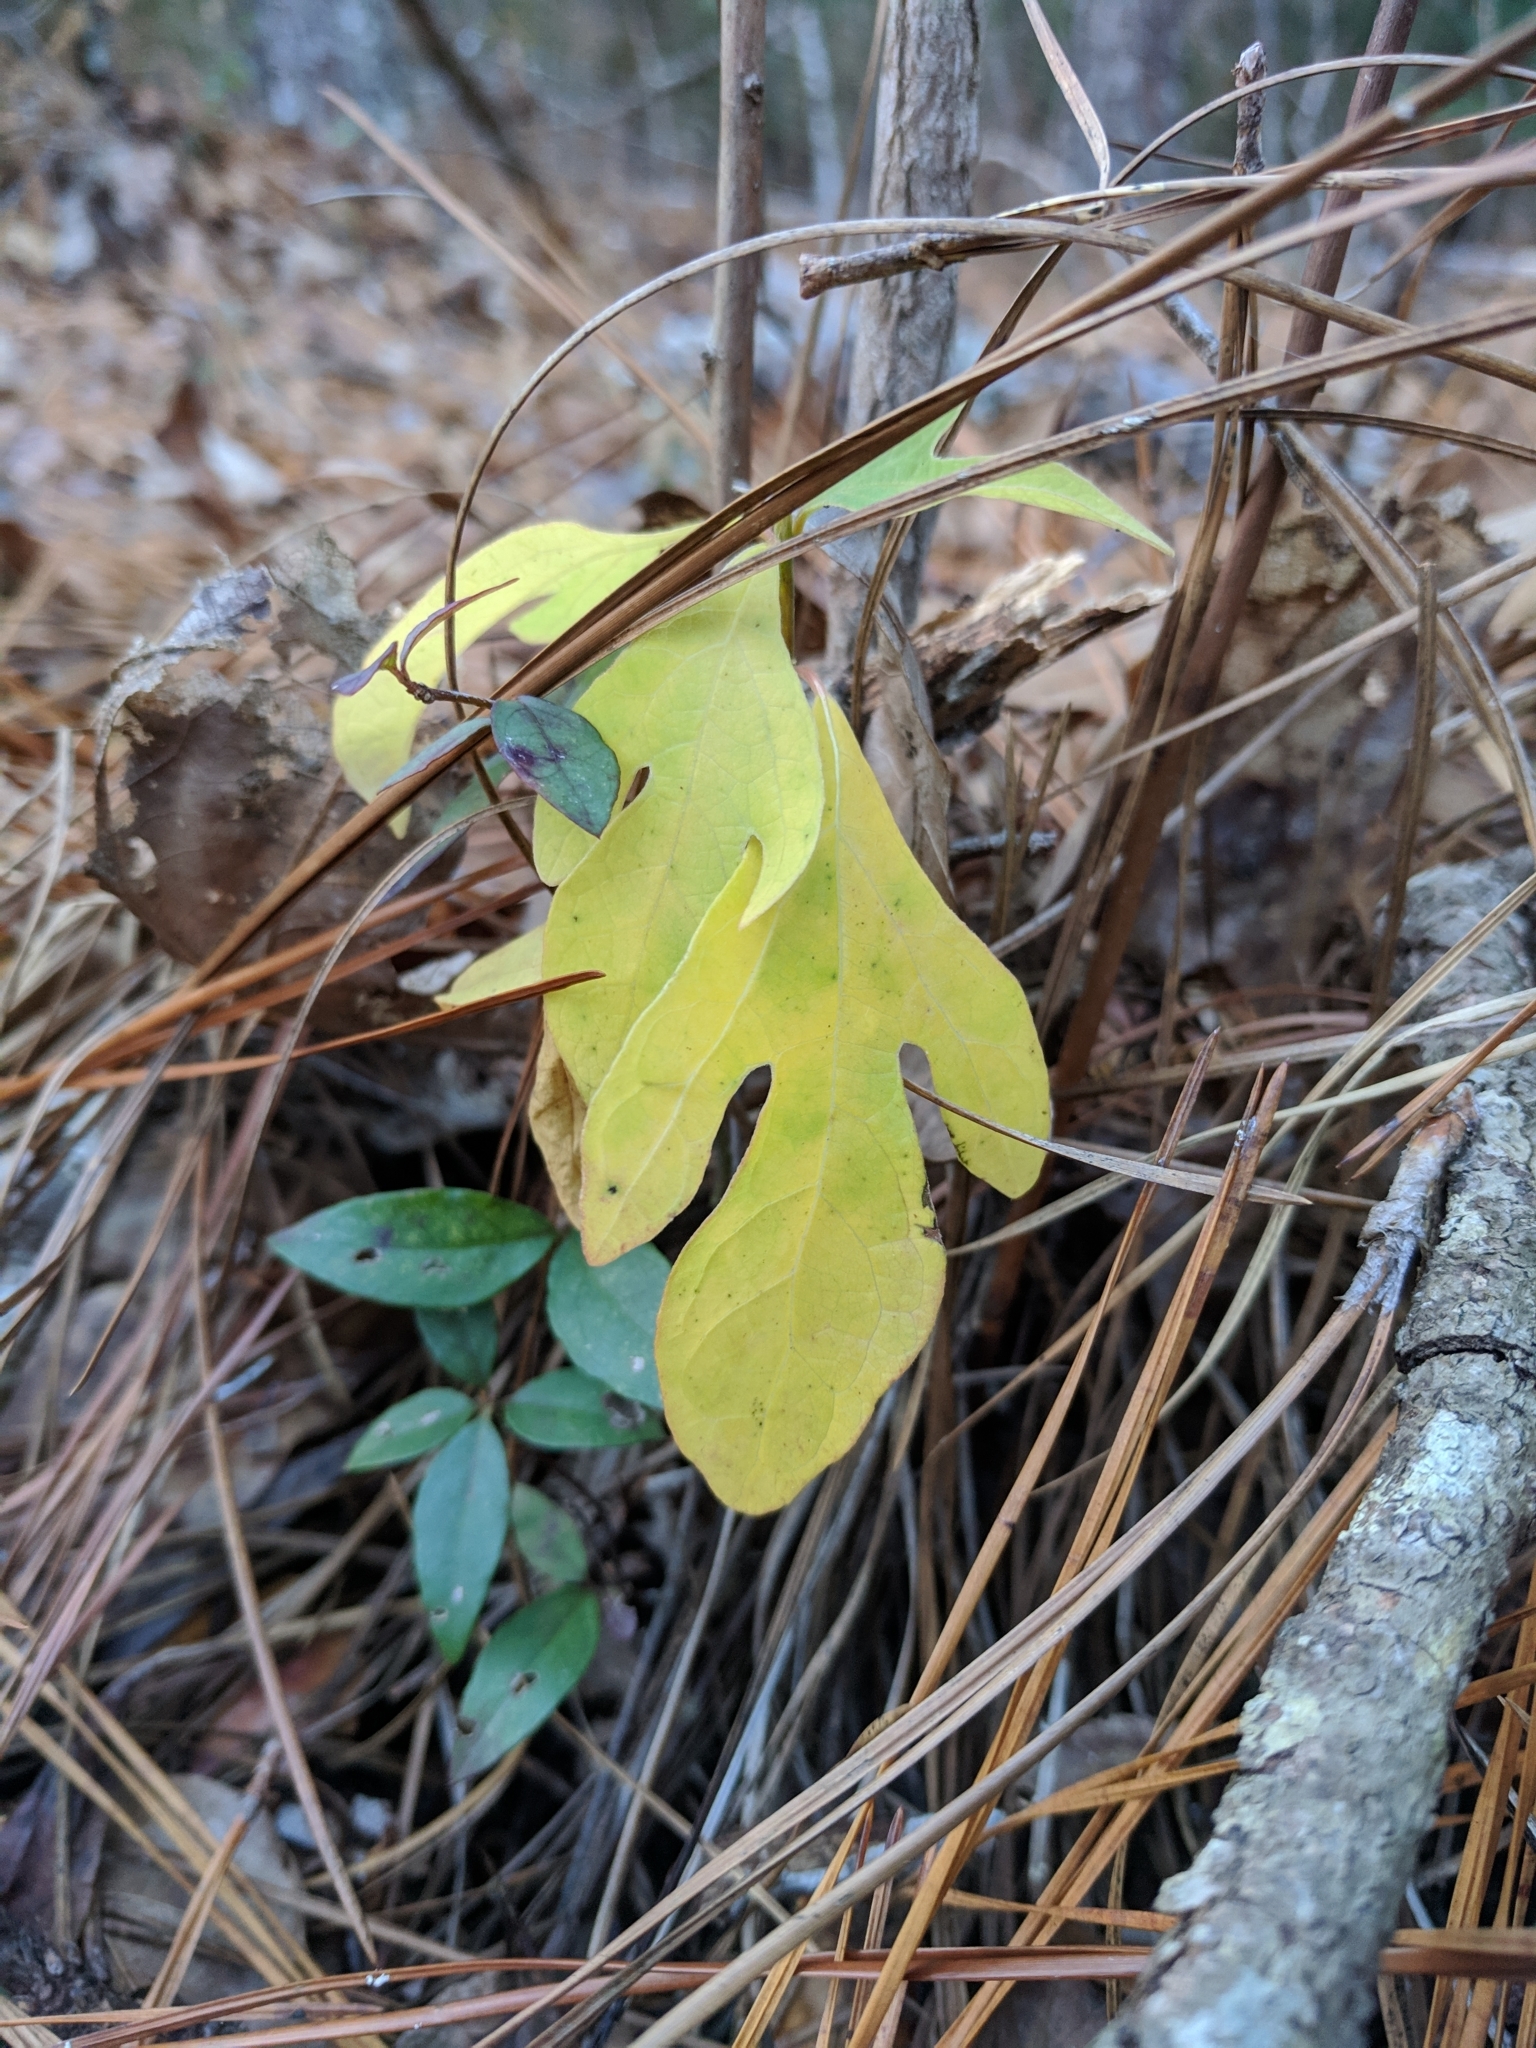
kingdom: Plantae
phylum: Tracheophyta
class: Magnoliopsida
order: Laurales
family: Lauraceae
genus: Sassafras
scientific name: Sassafras albidum
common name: Sassafras
